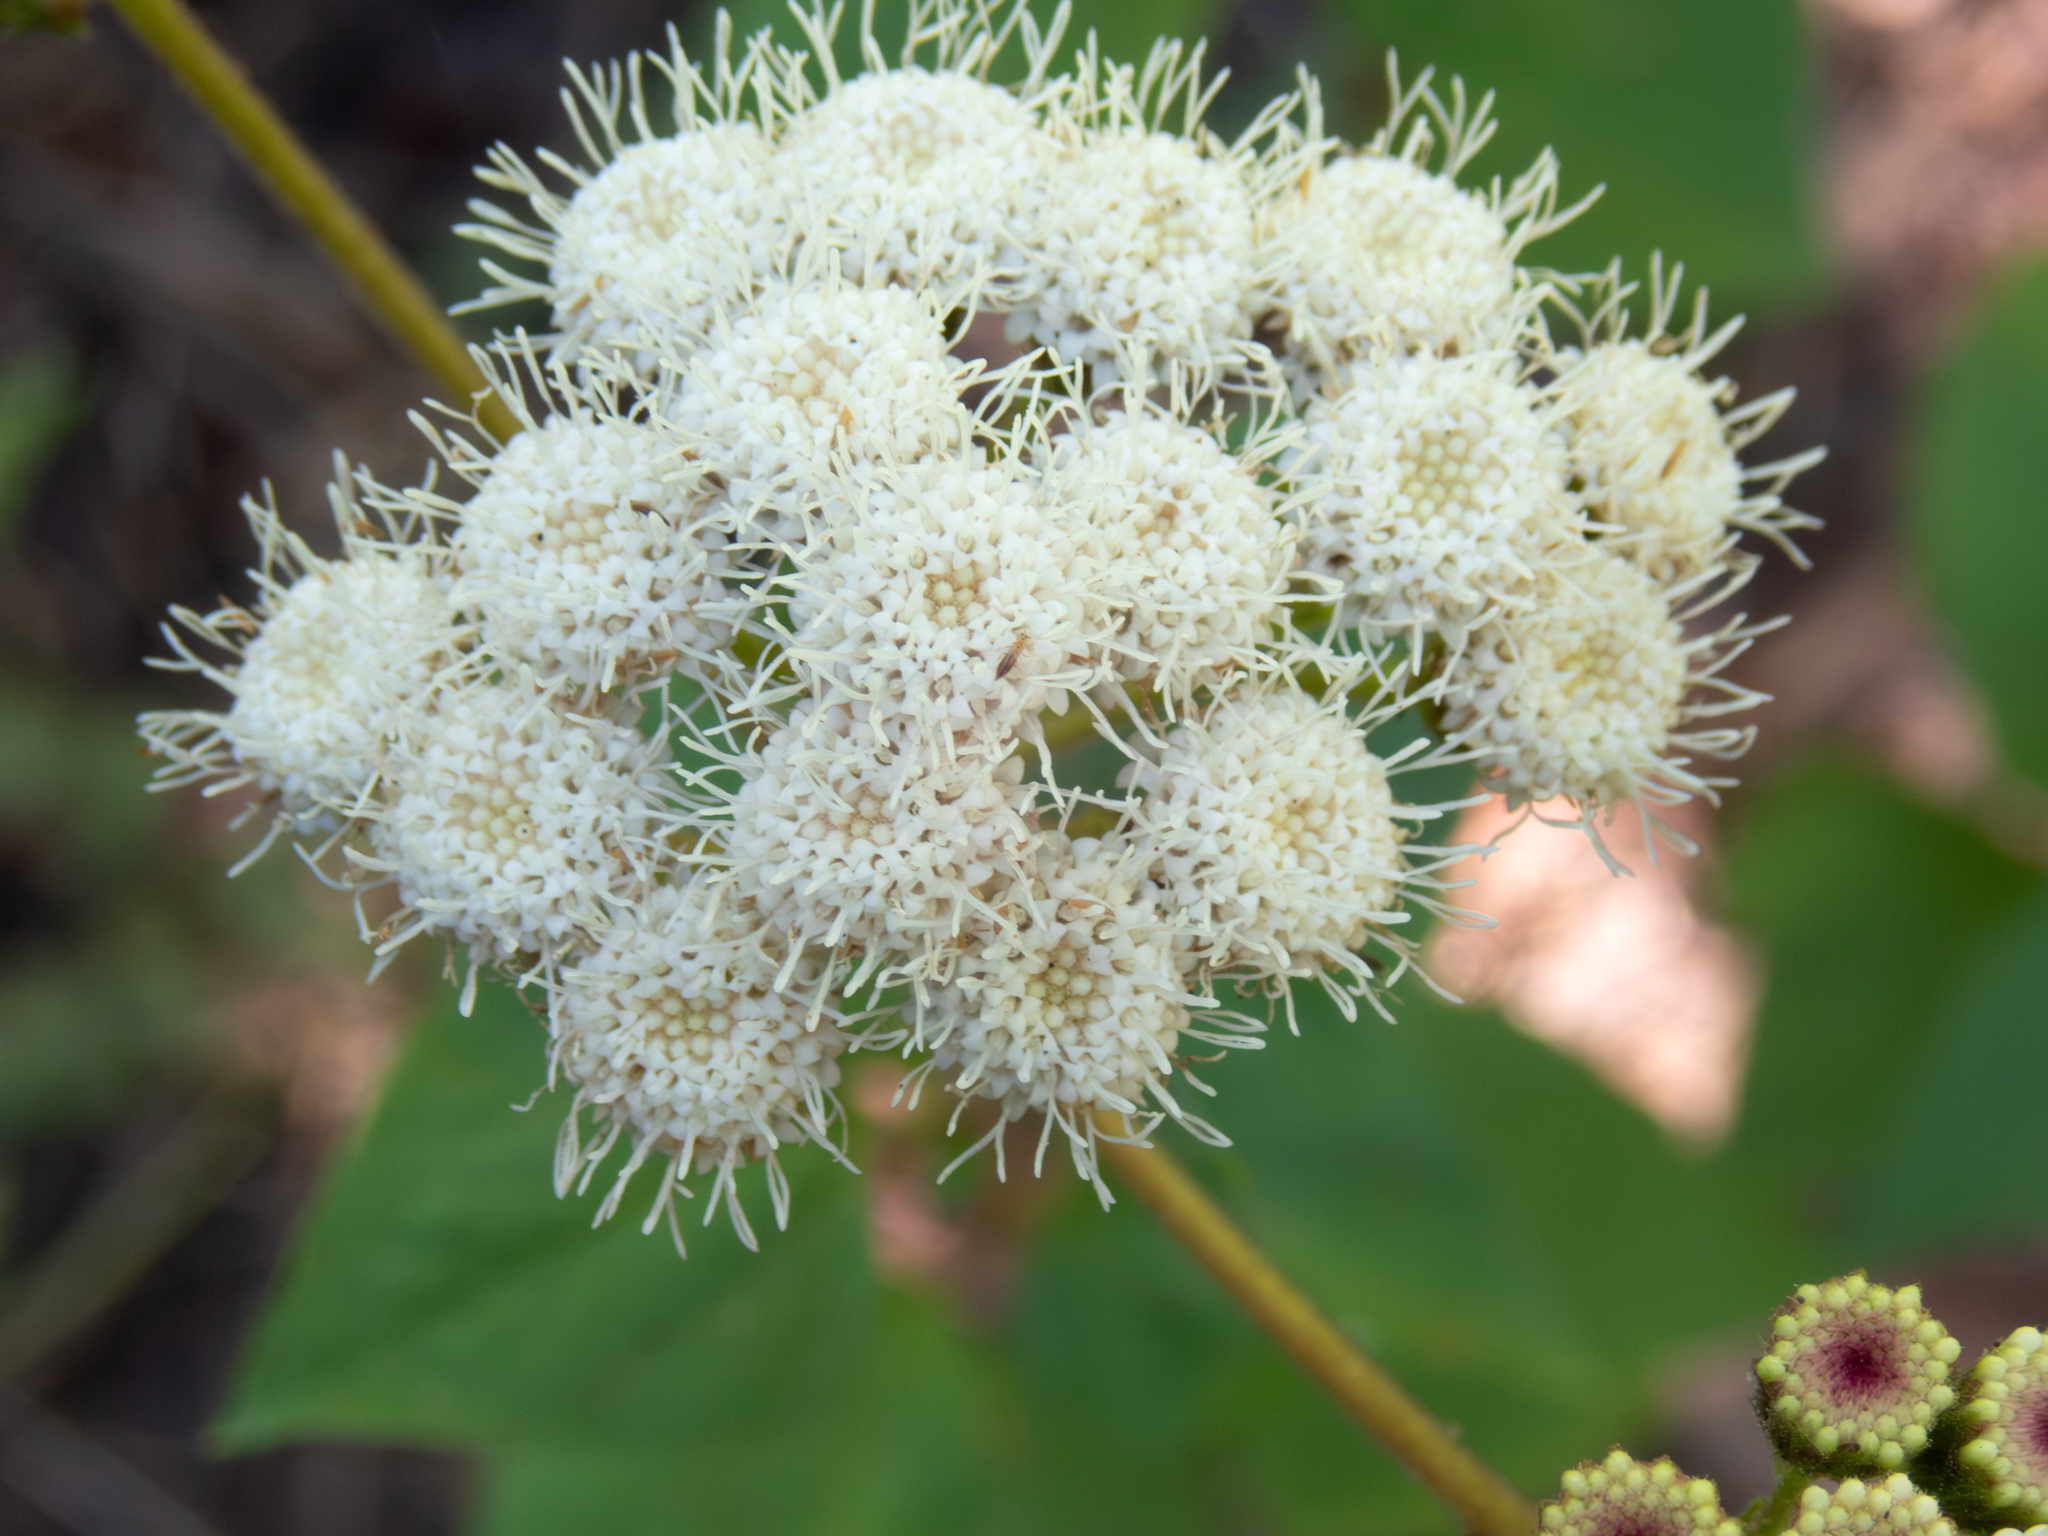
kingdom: Plantae
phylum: Tracheophyta
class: Magnoliopsida
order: Asterales
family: Asteraceae
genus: Ageratina
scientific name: Ageratina adenophora
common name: Sticky snakeroot
